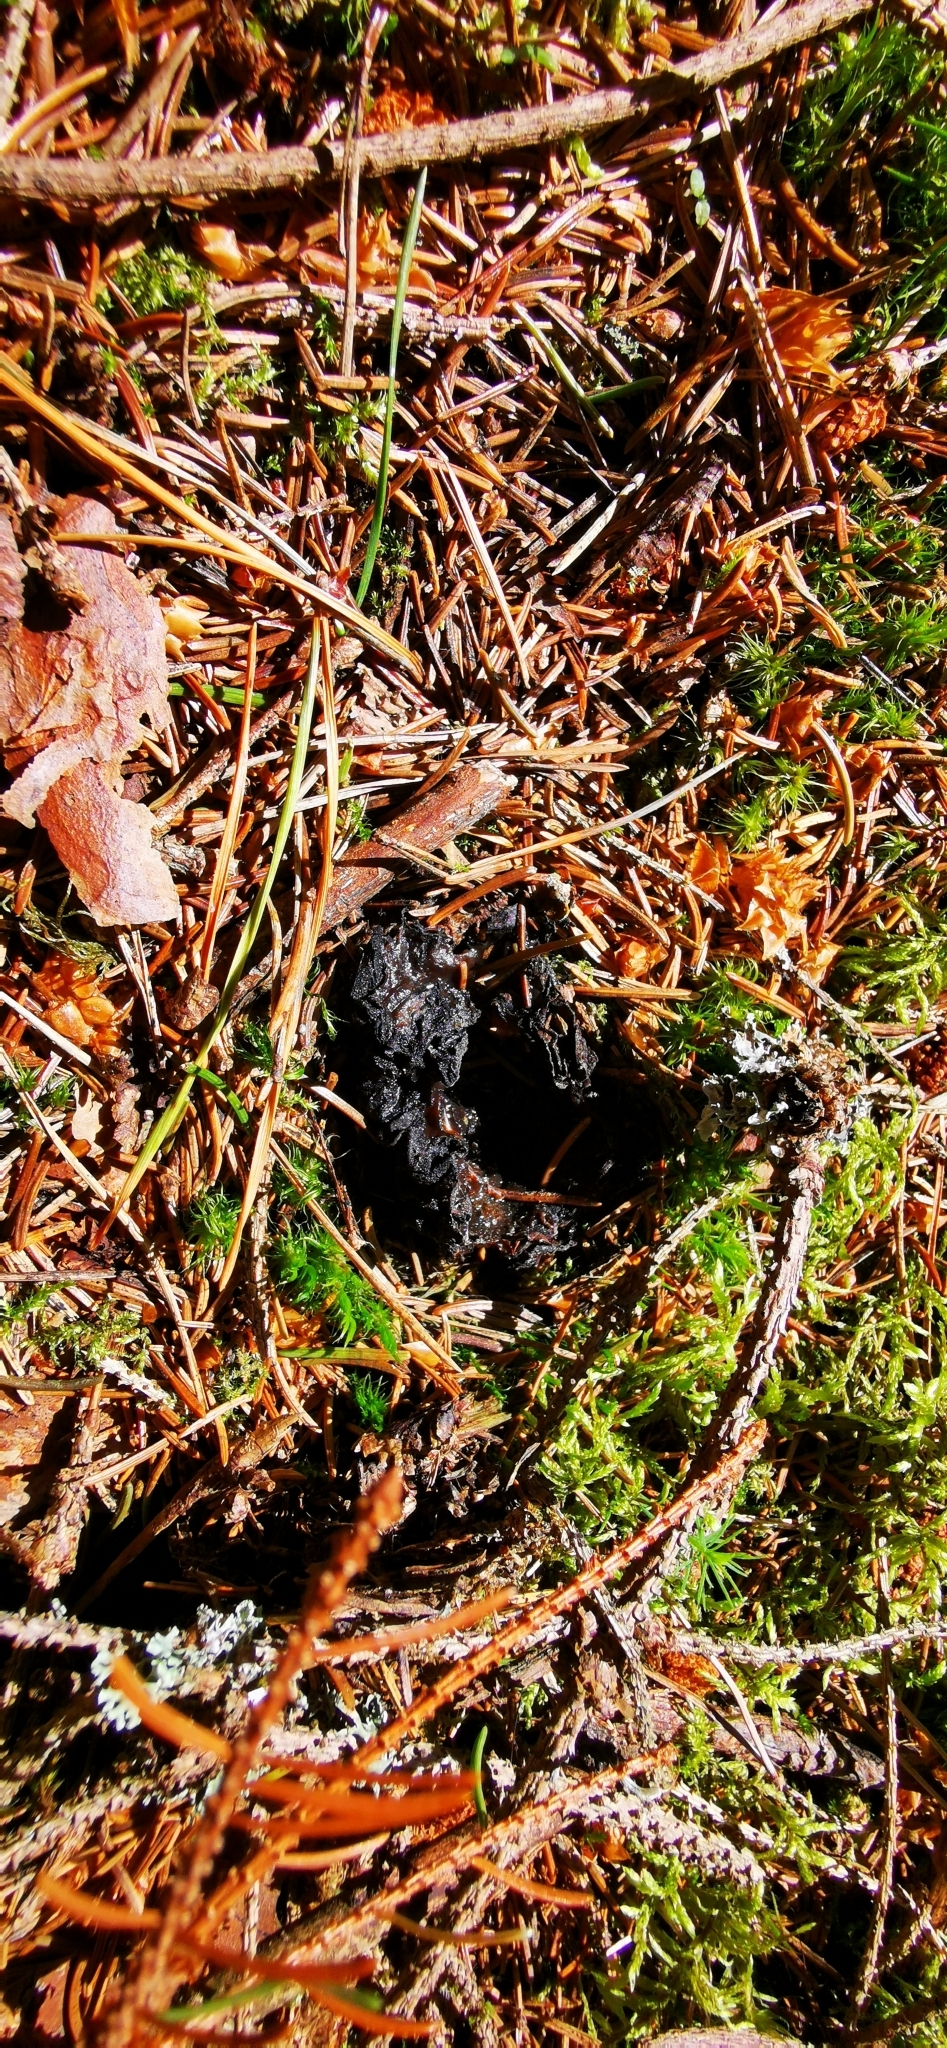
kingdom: Fungi
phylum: Ascomycota
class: Pezizomycetes
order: Pezizales
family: Sarcosomataceae
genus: Sarcosoma
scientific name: Sarcosoma globosum
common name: Charred-pancake cup
